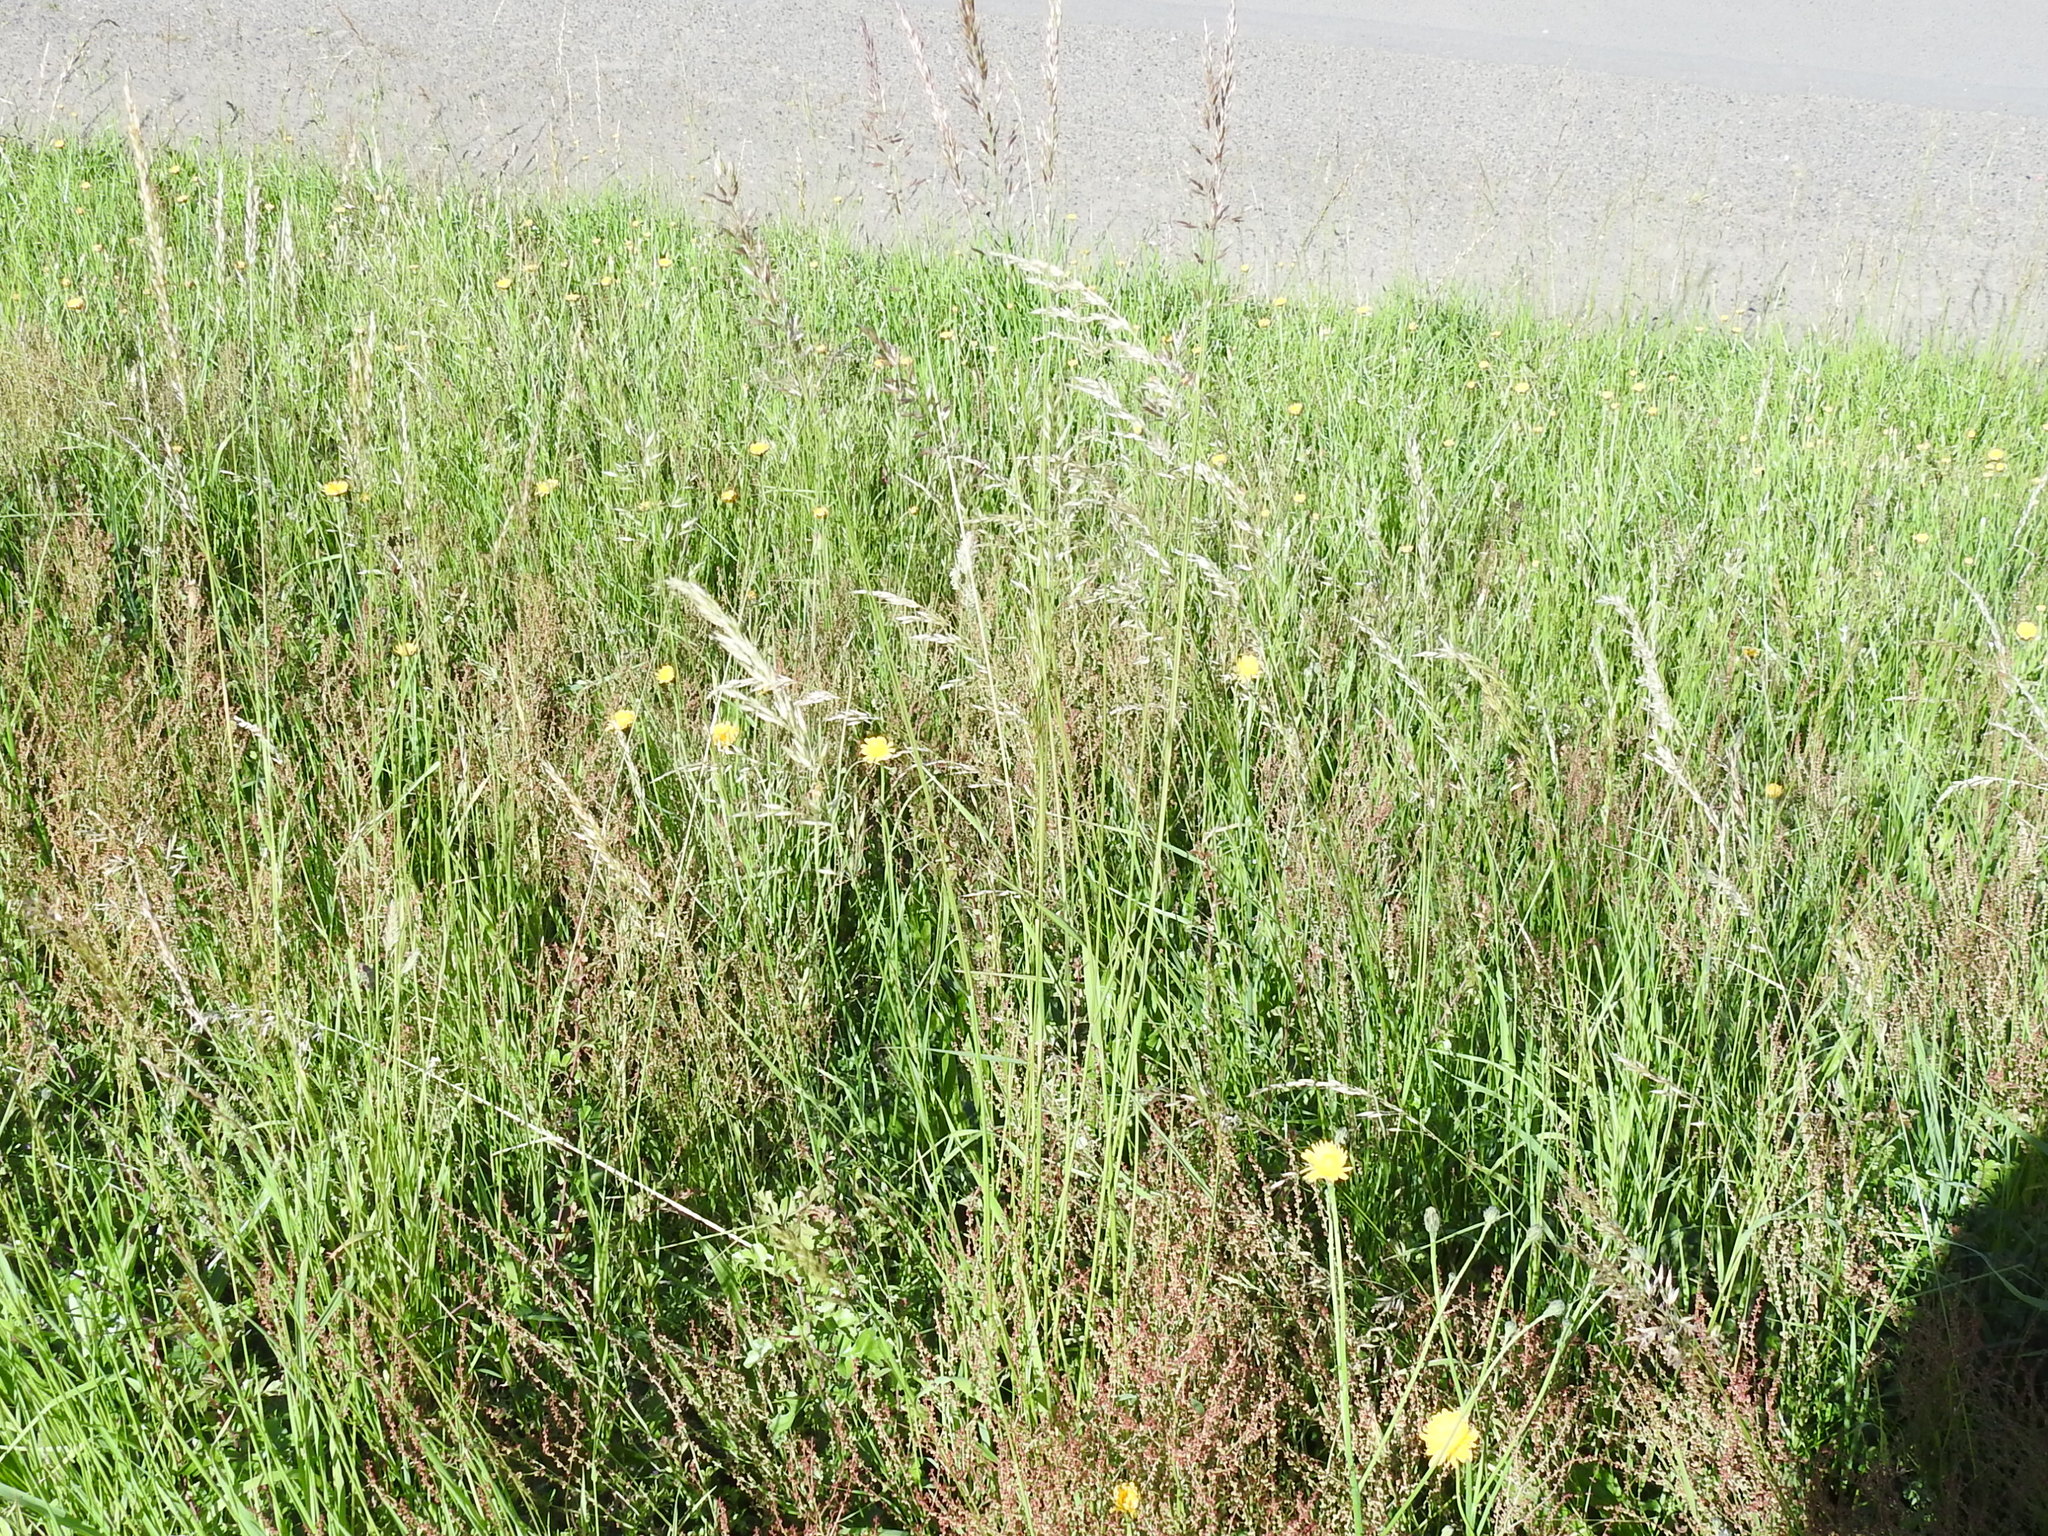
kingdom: Plantae
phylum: Tracheophyta
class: Liliopsida
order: Poales
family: Poaceae
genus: Arrhenatherum
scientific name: Arrhenatherum elatius
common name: Tall oatgrass
